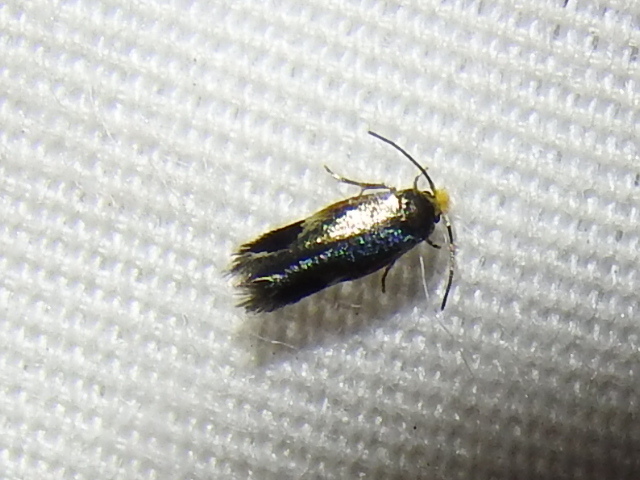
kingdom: Animalia
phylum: Arthropoda
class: Insecta
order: Lepidoptera
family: Nepticulidae
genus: Stigmella
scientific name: Stigmella resplendensella
